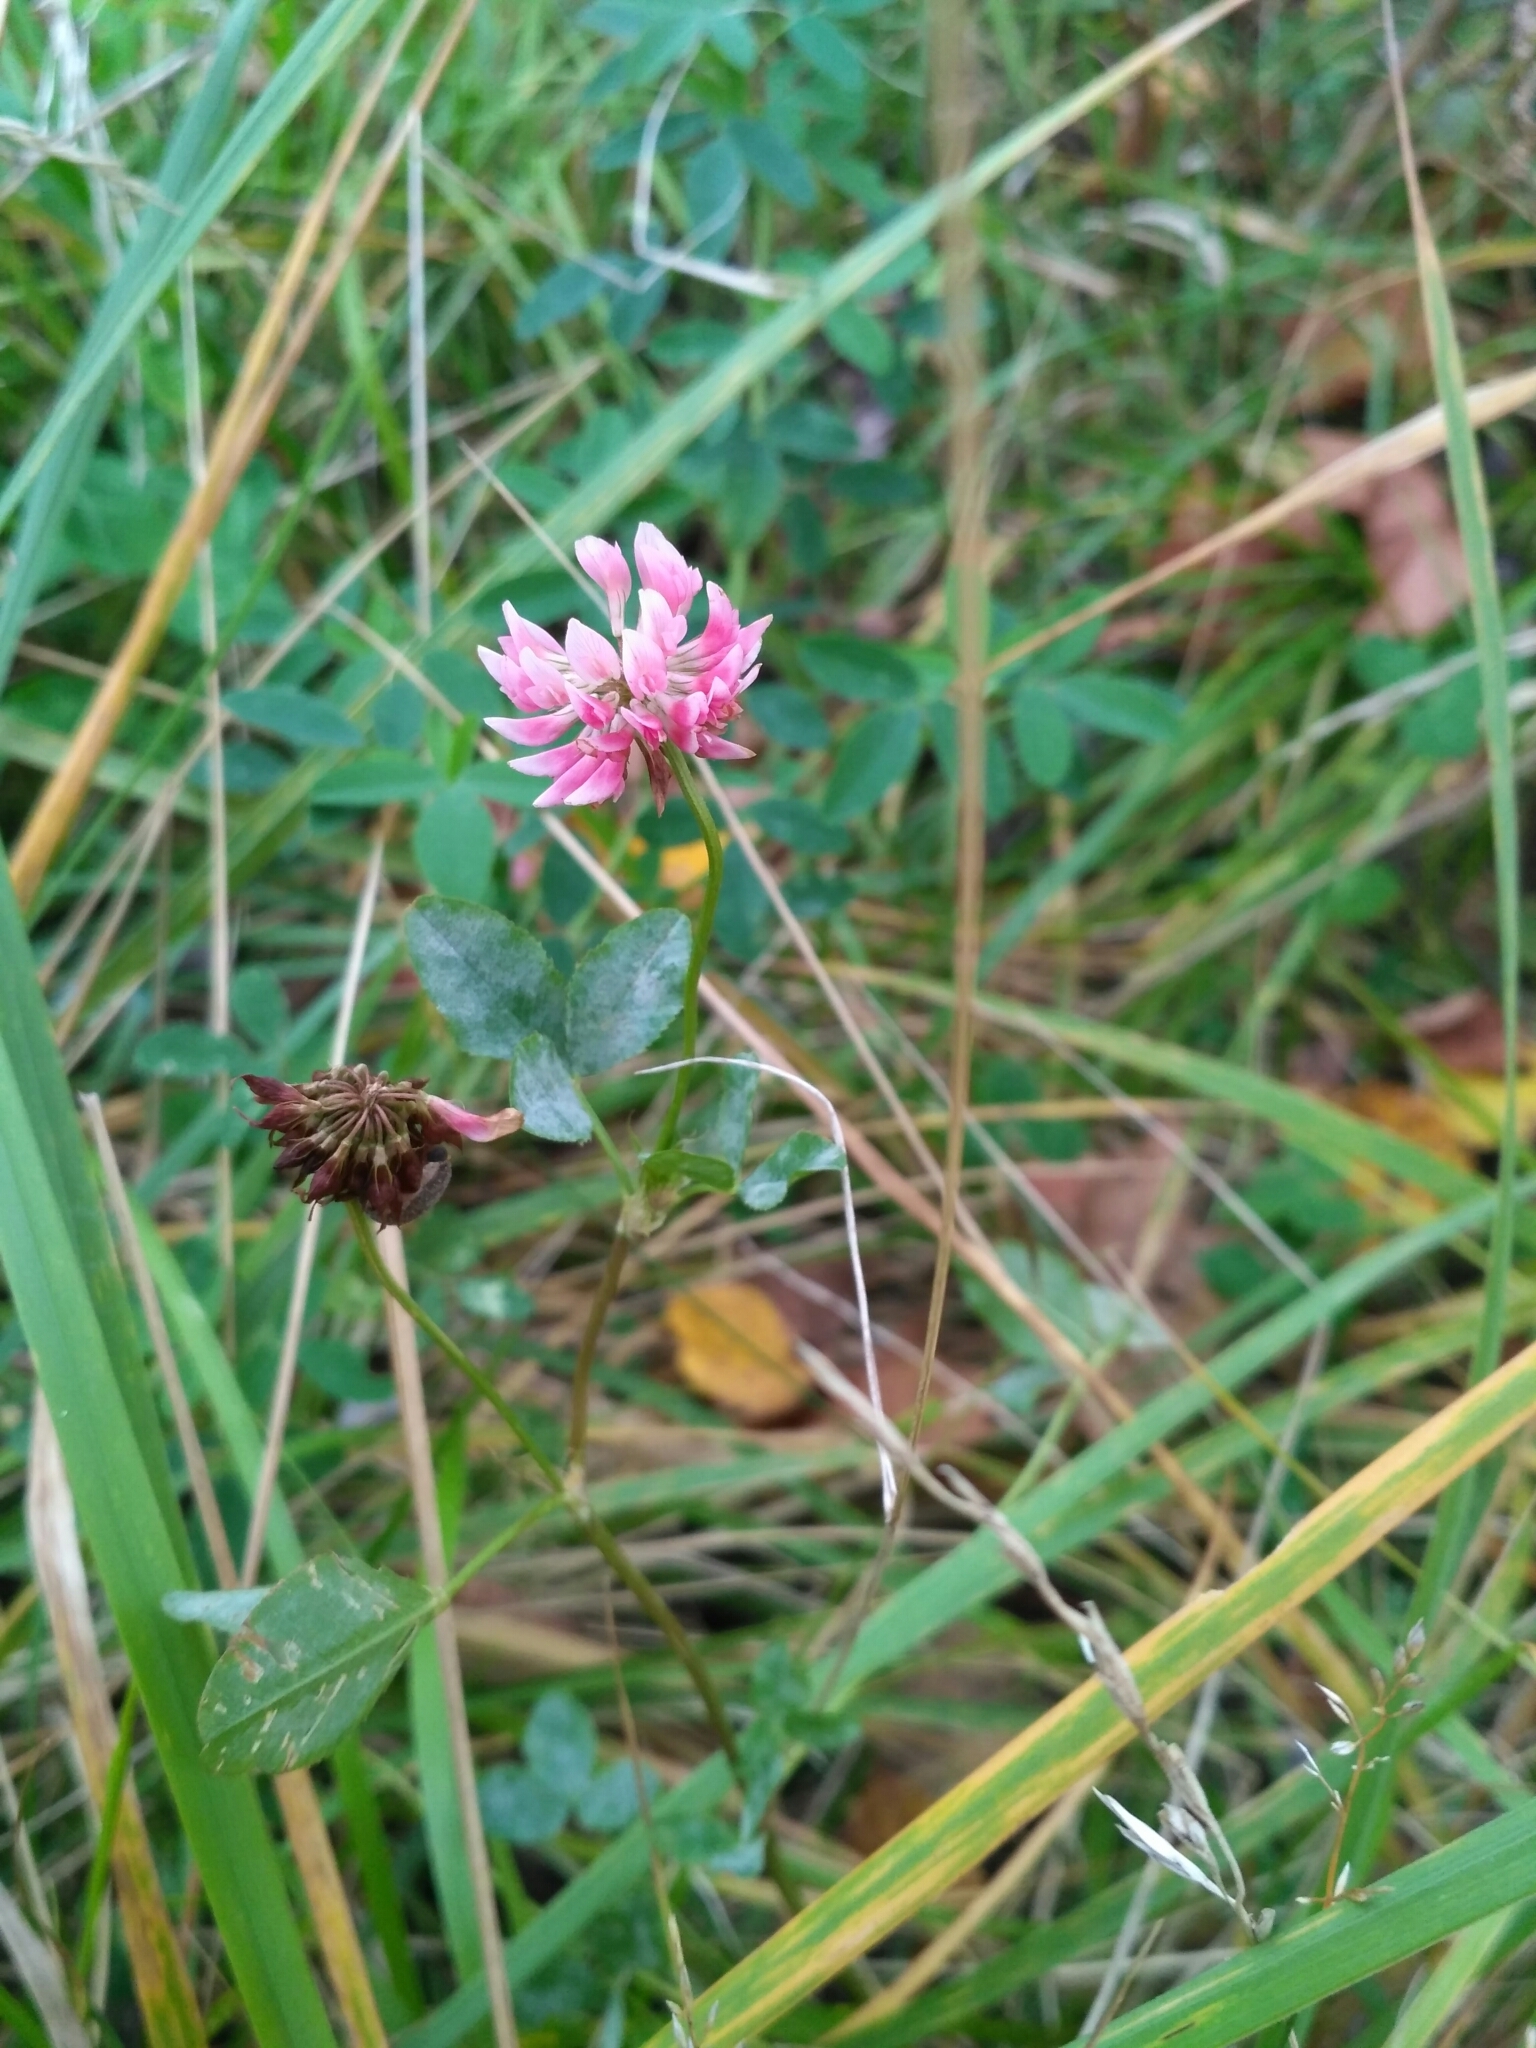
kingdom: Plantae
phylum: Tracheophyta
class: Magnoliopsida
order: Fabales
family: Fabaceae
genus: Trifolium
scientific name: Trifolium hybridum
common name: Alsike clover
